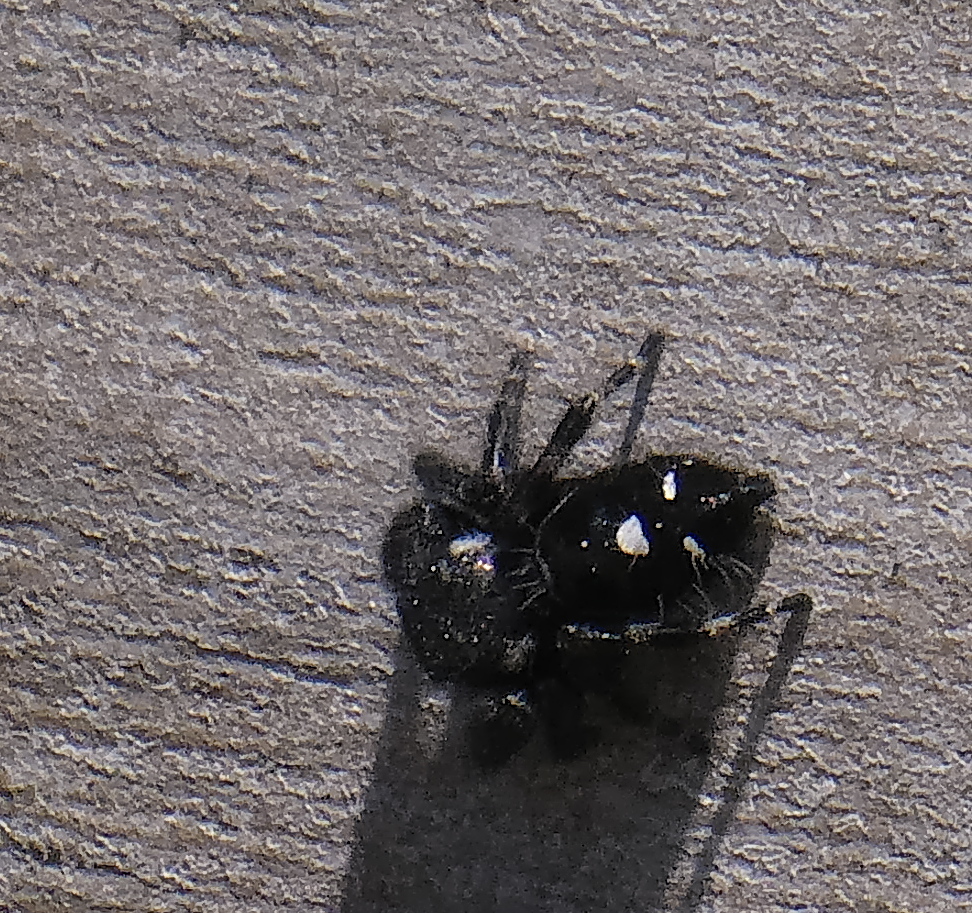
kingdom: Animalia
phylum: Arthropoda
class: Arachnida
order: Araneae
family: Salticidae
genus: Phidippus
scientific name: Phidippus audax
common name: Bold jumper
